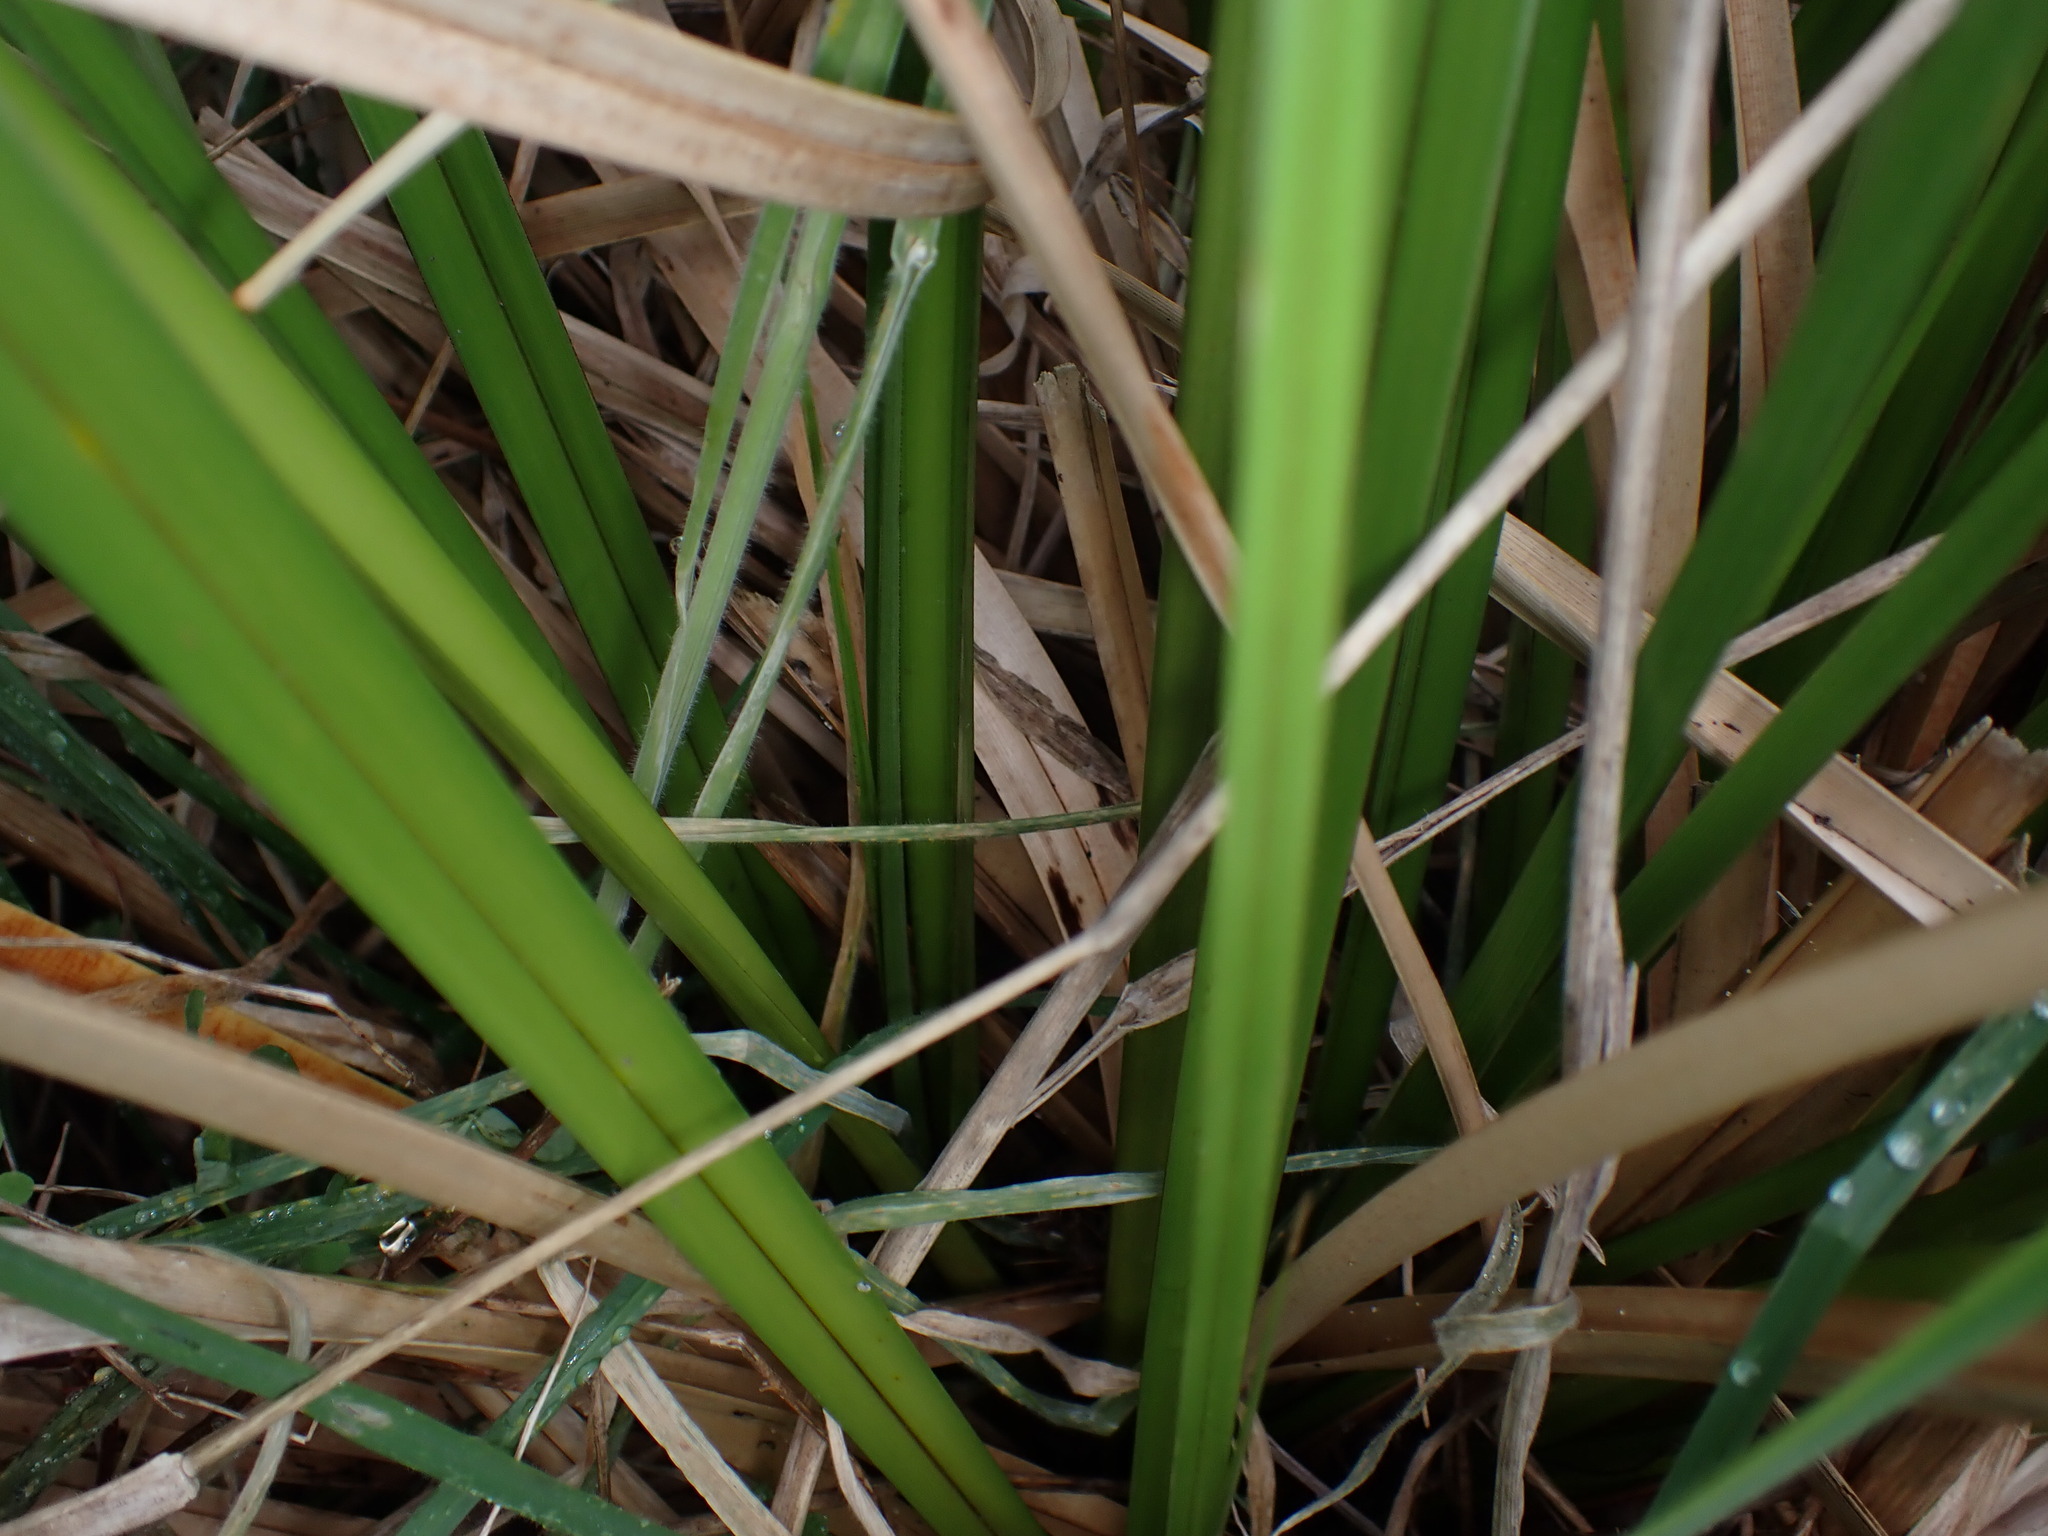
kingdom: Plantae
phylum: Tracheophyta
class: Liliopsida
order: Poales
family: Cyperaceae
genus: Cyperus
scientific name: Cyperus ustulatus
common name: Giant umbrella-sedge
